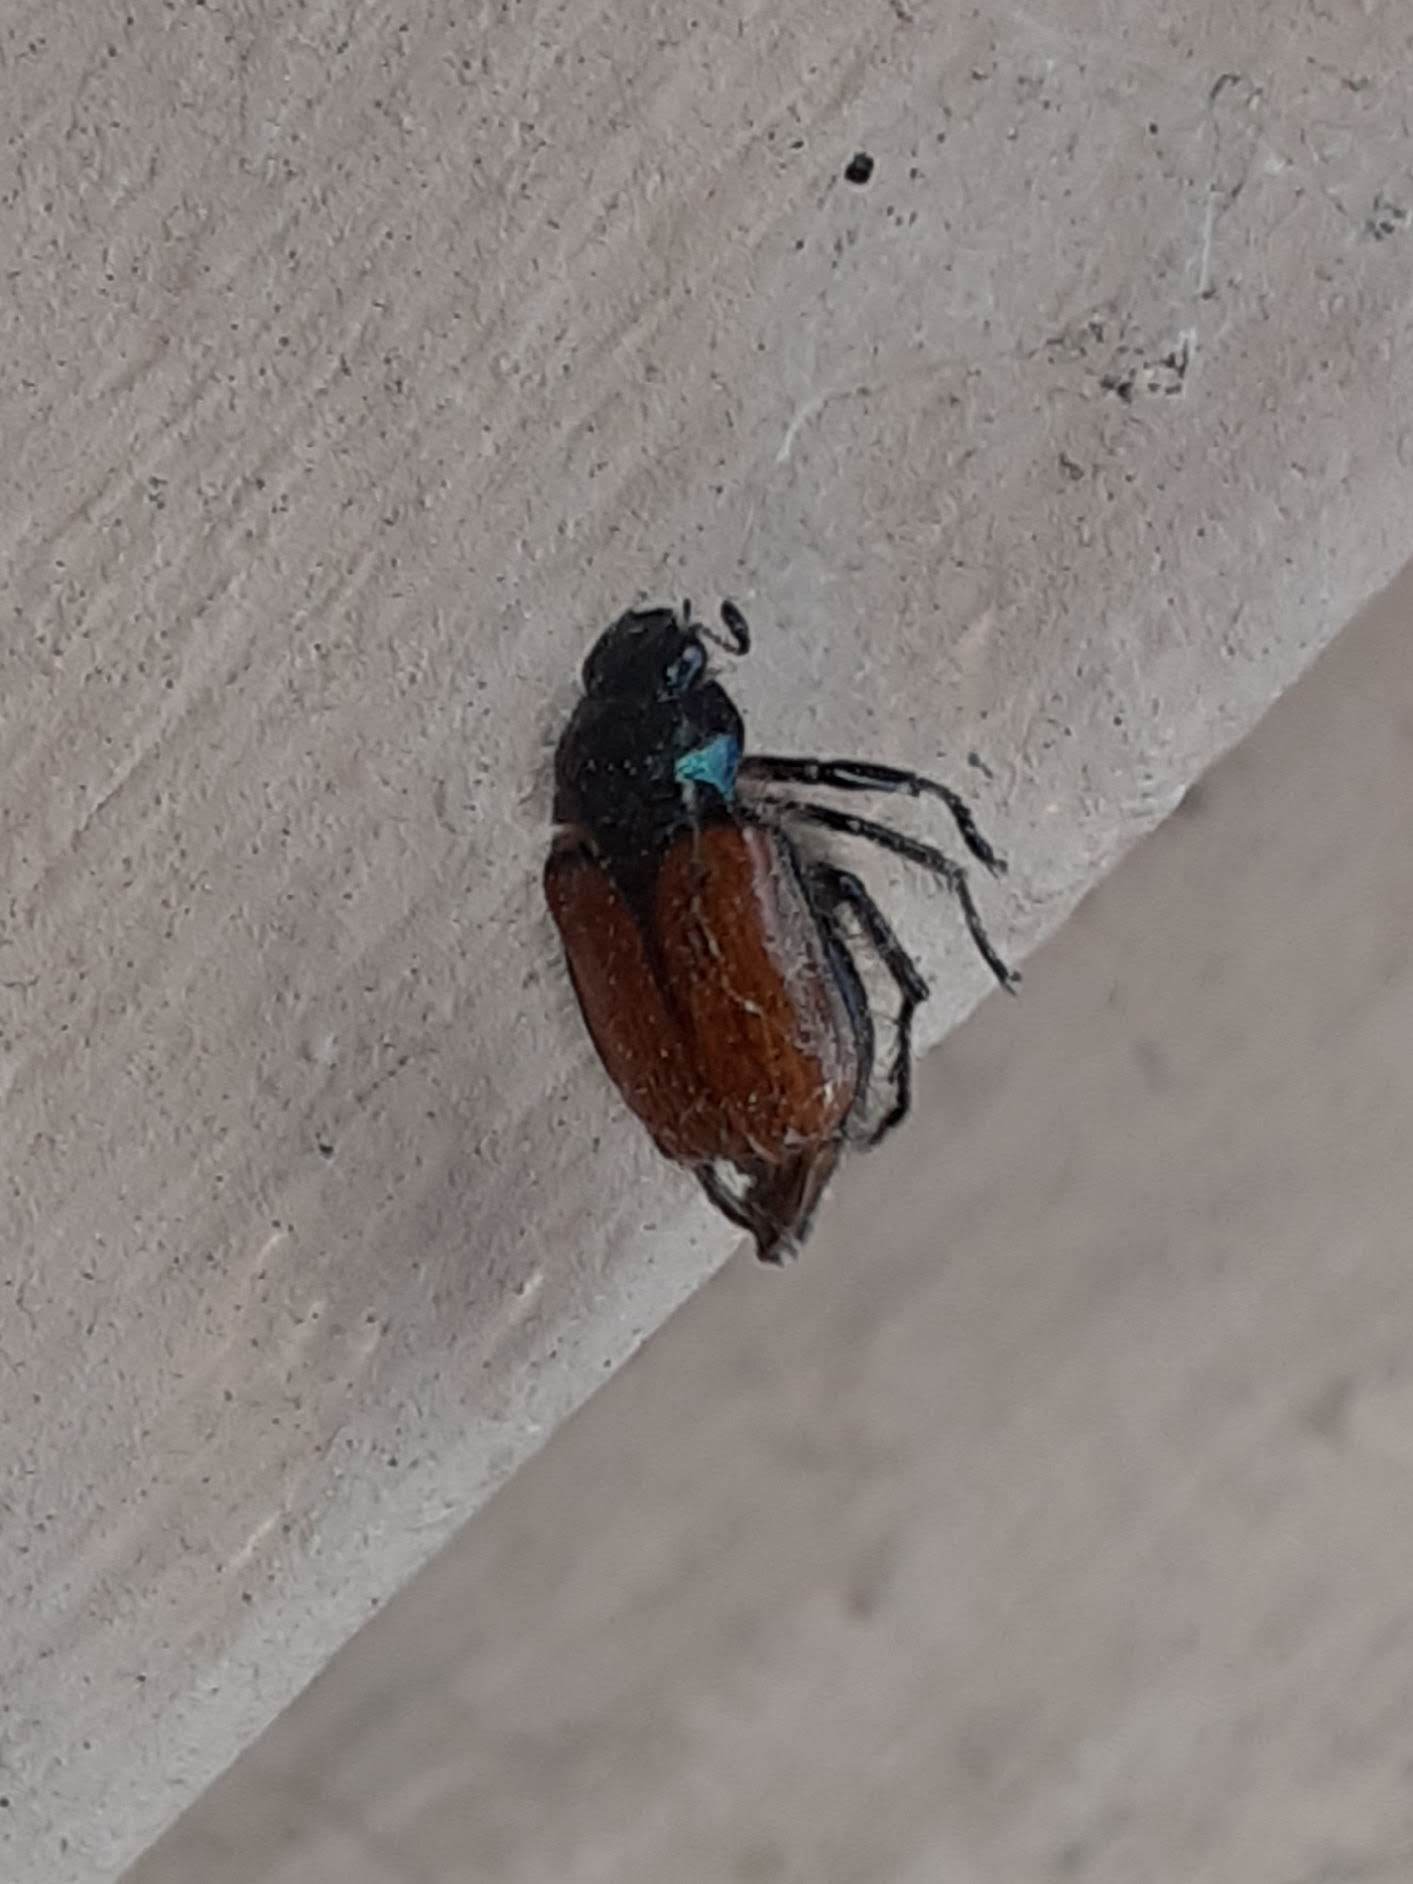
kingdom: Animalia
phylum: Arthropoda
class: Insecta
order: Coleoptera
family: Scarabaeidae
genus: Phyllopertha
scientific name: Phyllopertha horticola
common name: Garden chafer
